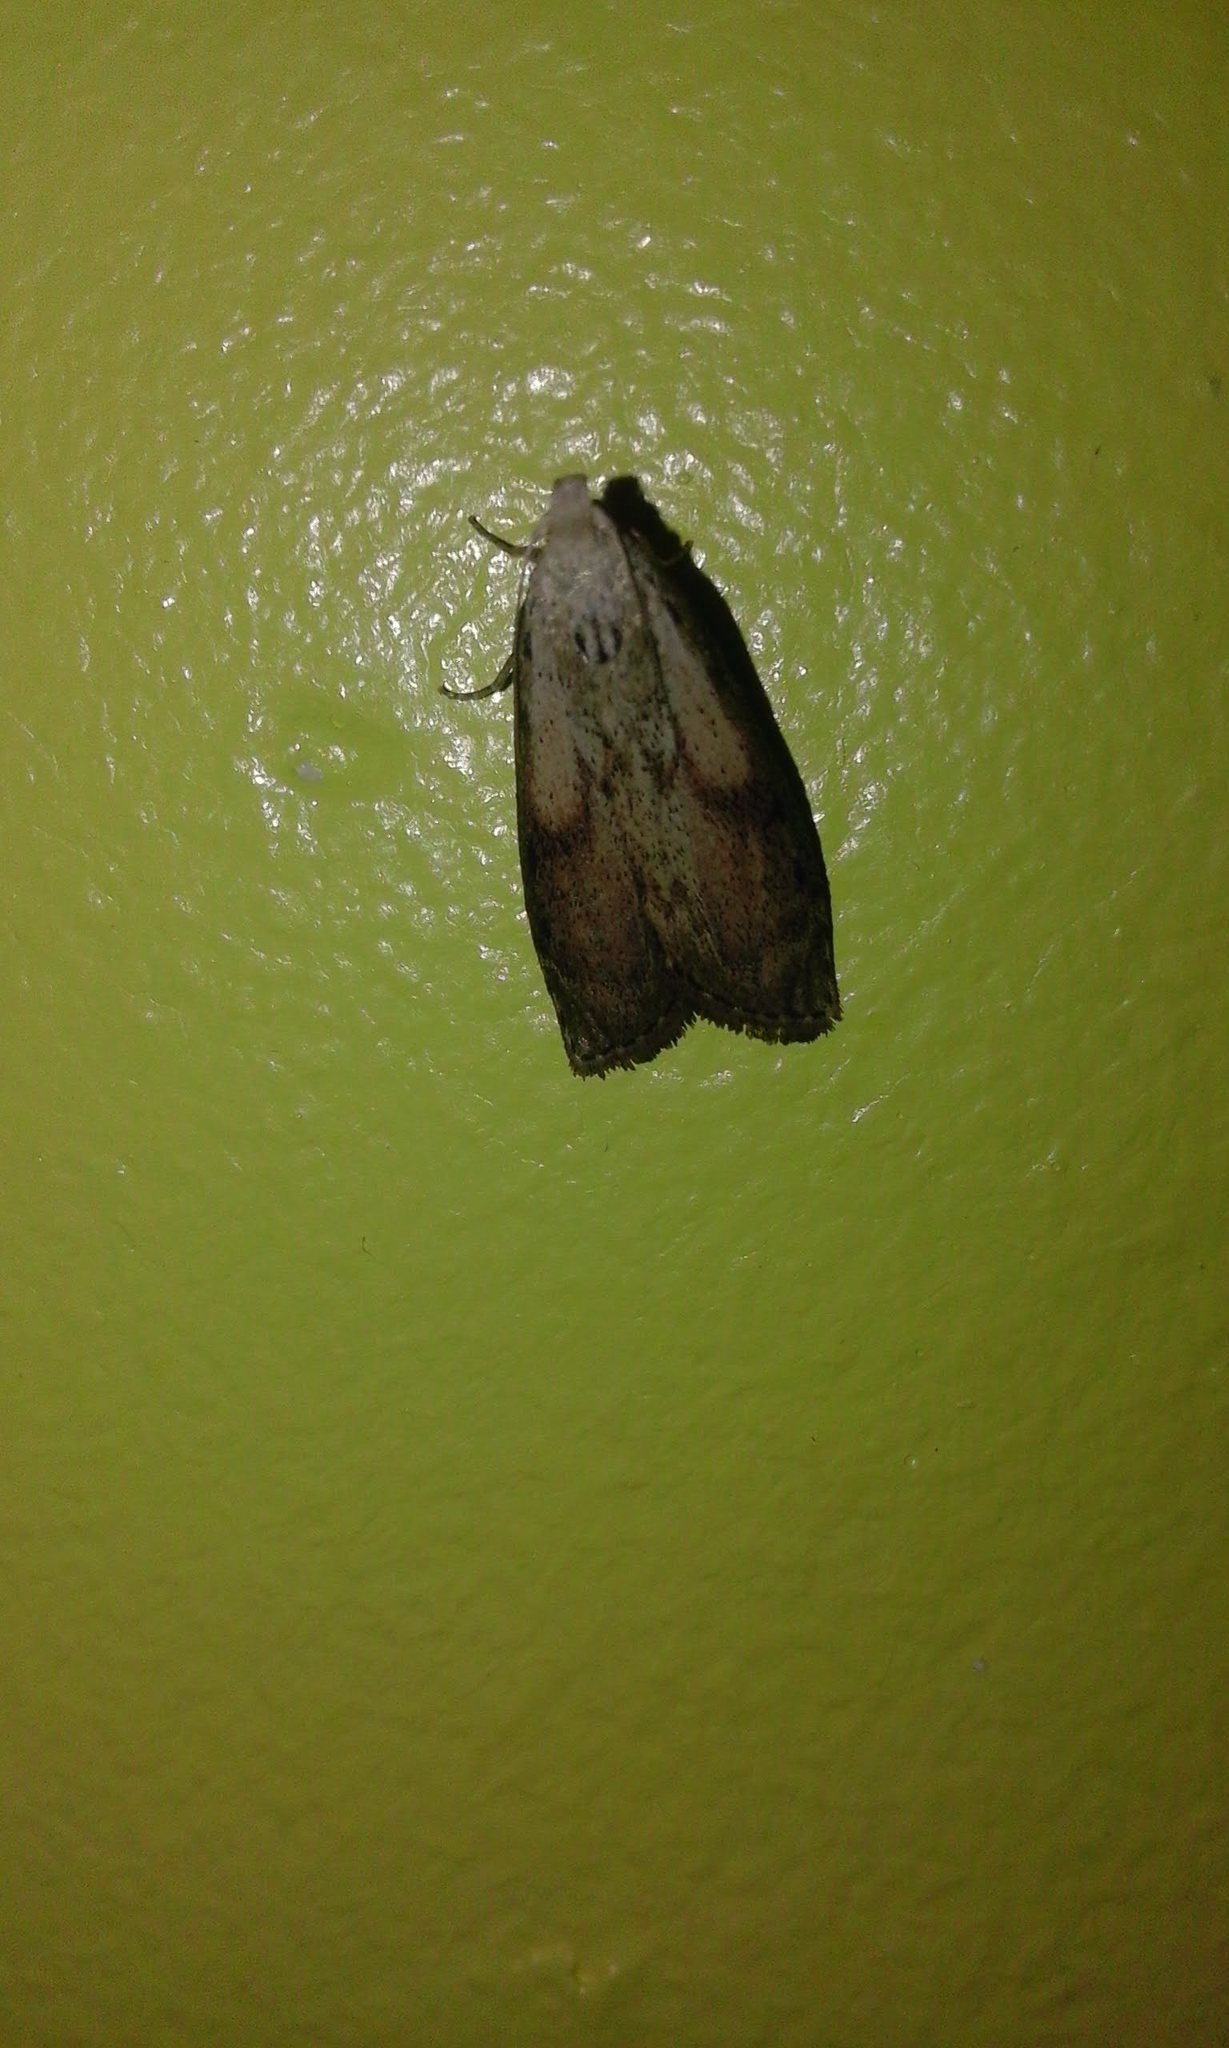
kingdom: Animalia
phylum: Arthropoda
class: Insecta
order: Lepidoptera
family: Pyralidae
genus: Aphomia
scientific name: Aphomia sociella
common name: Bee moth
